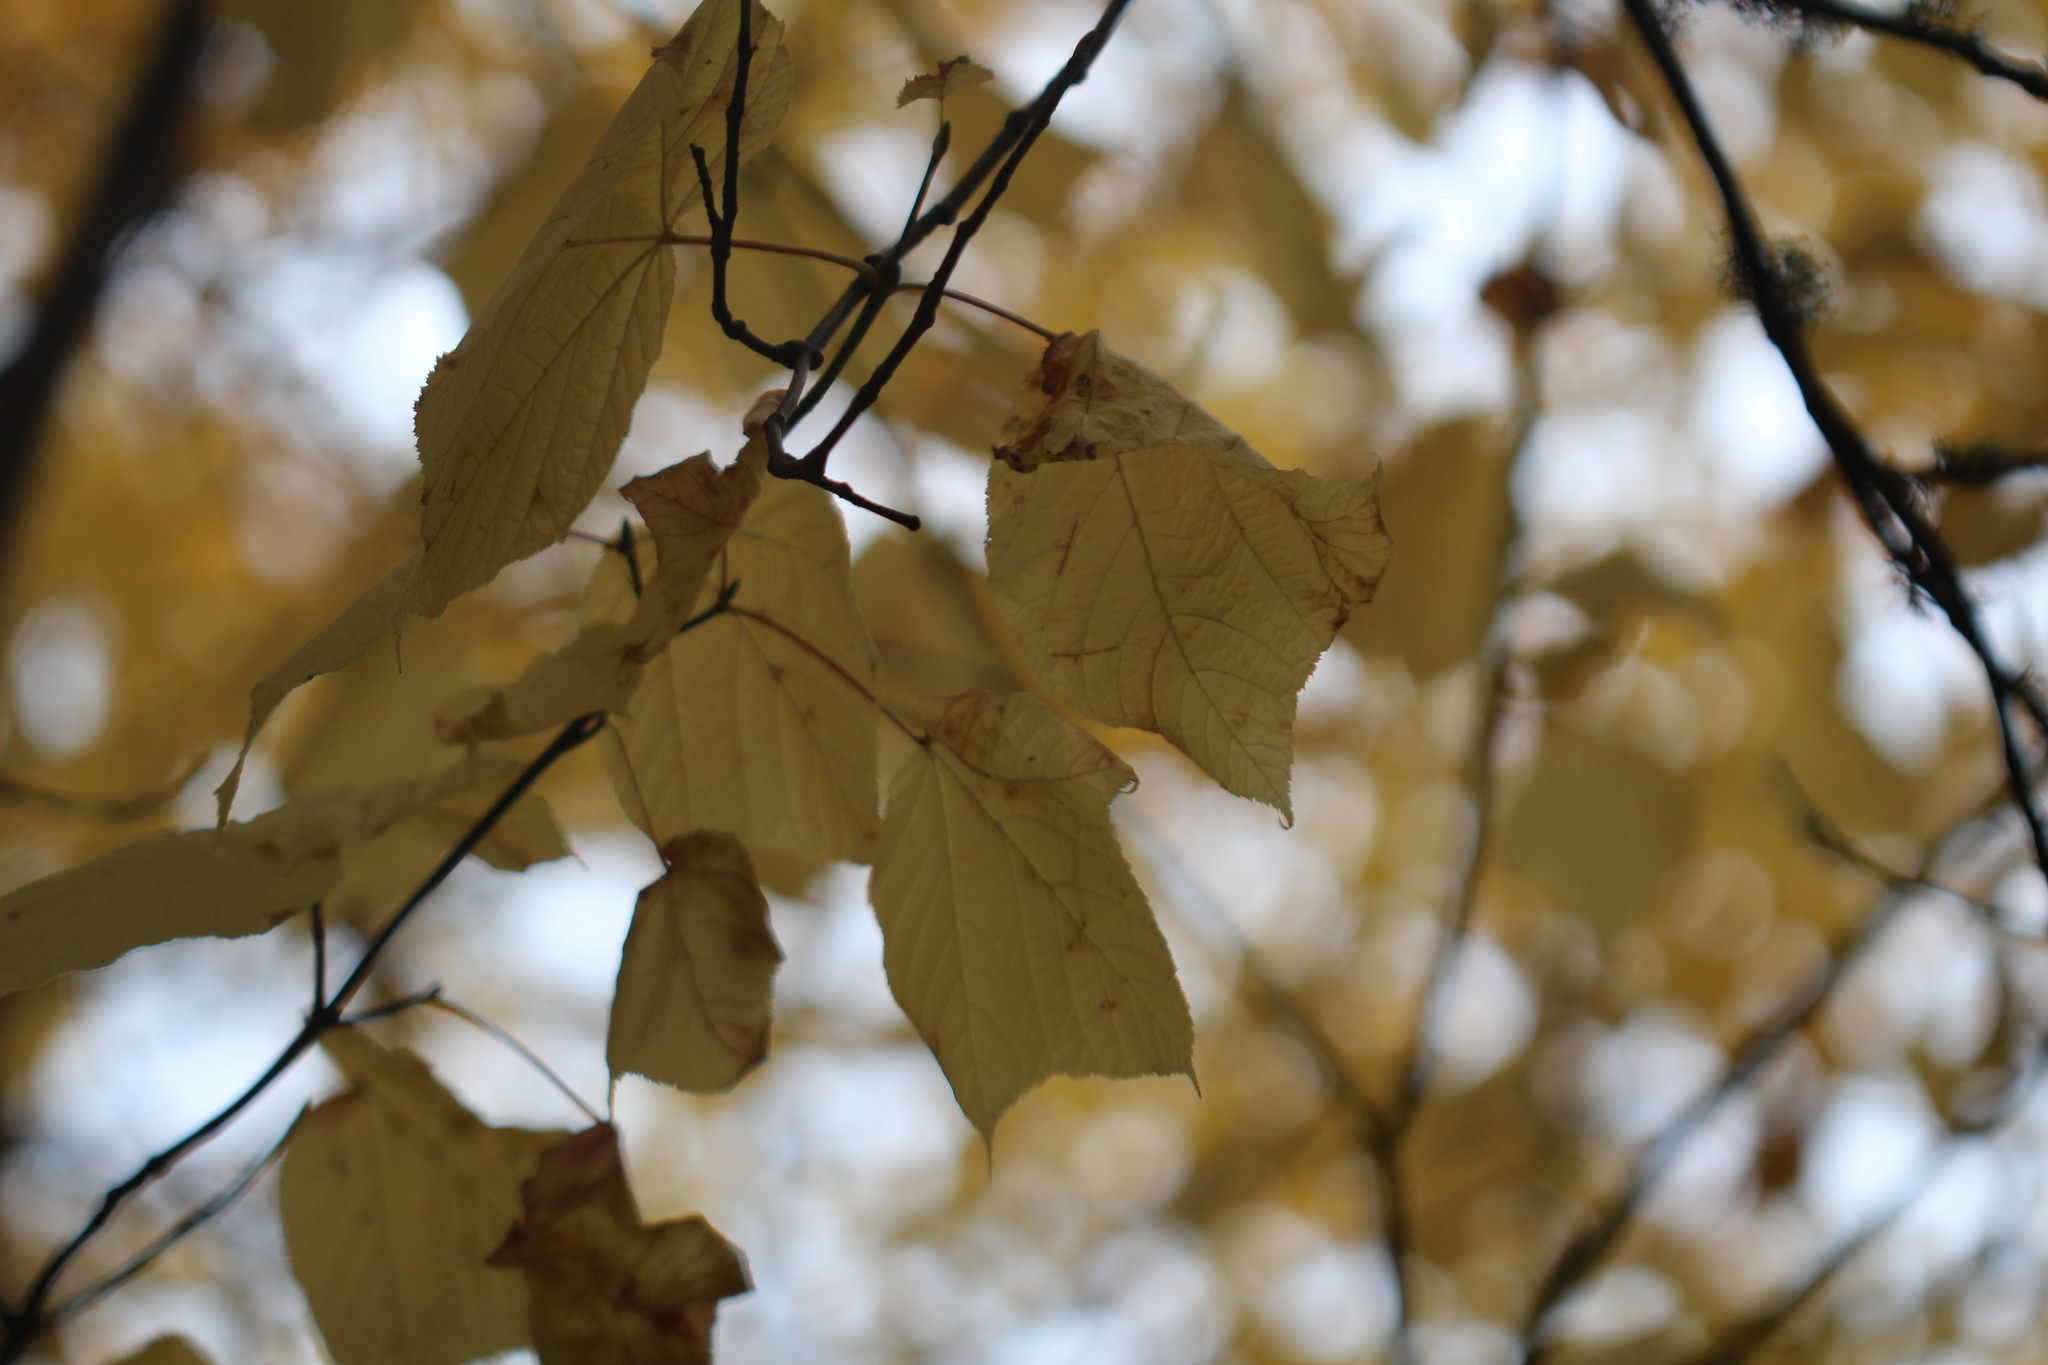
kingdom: Plantae
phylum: Tracheophyta
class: Magnoliopsida
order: Sapindales
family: Sapindaceae
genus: Acer
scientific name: Acer pensylvanicum
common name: Moosewood
